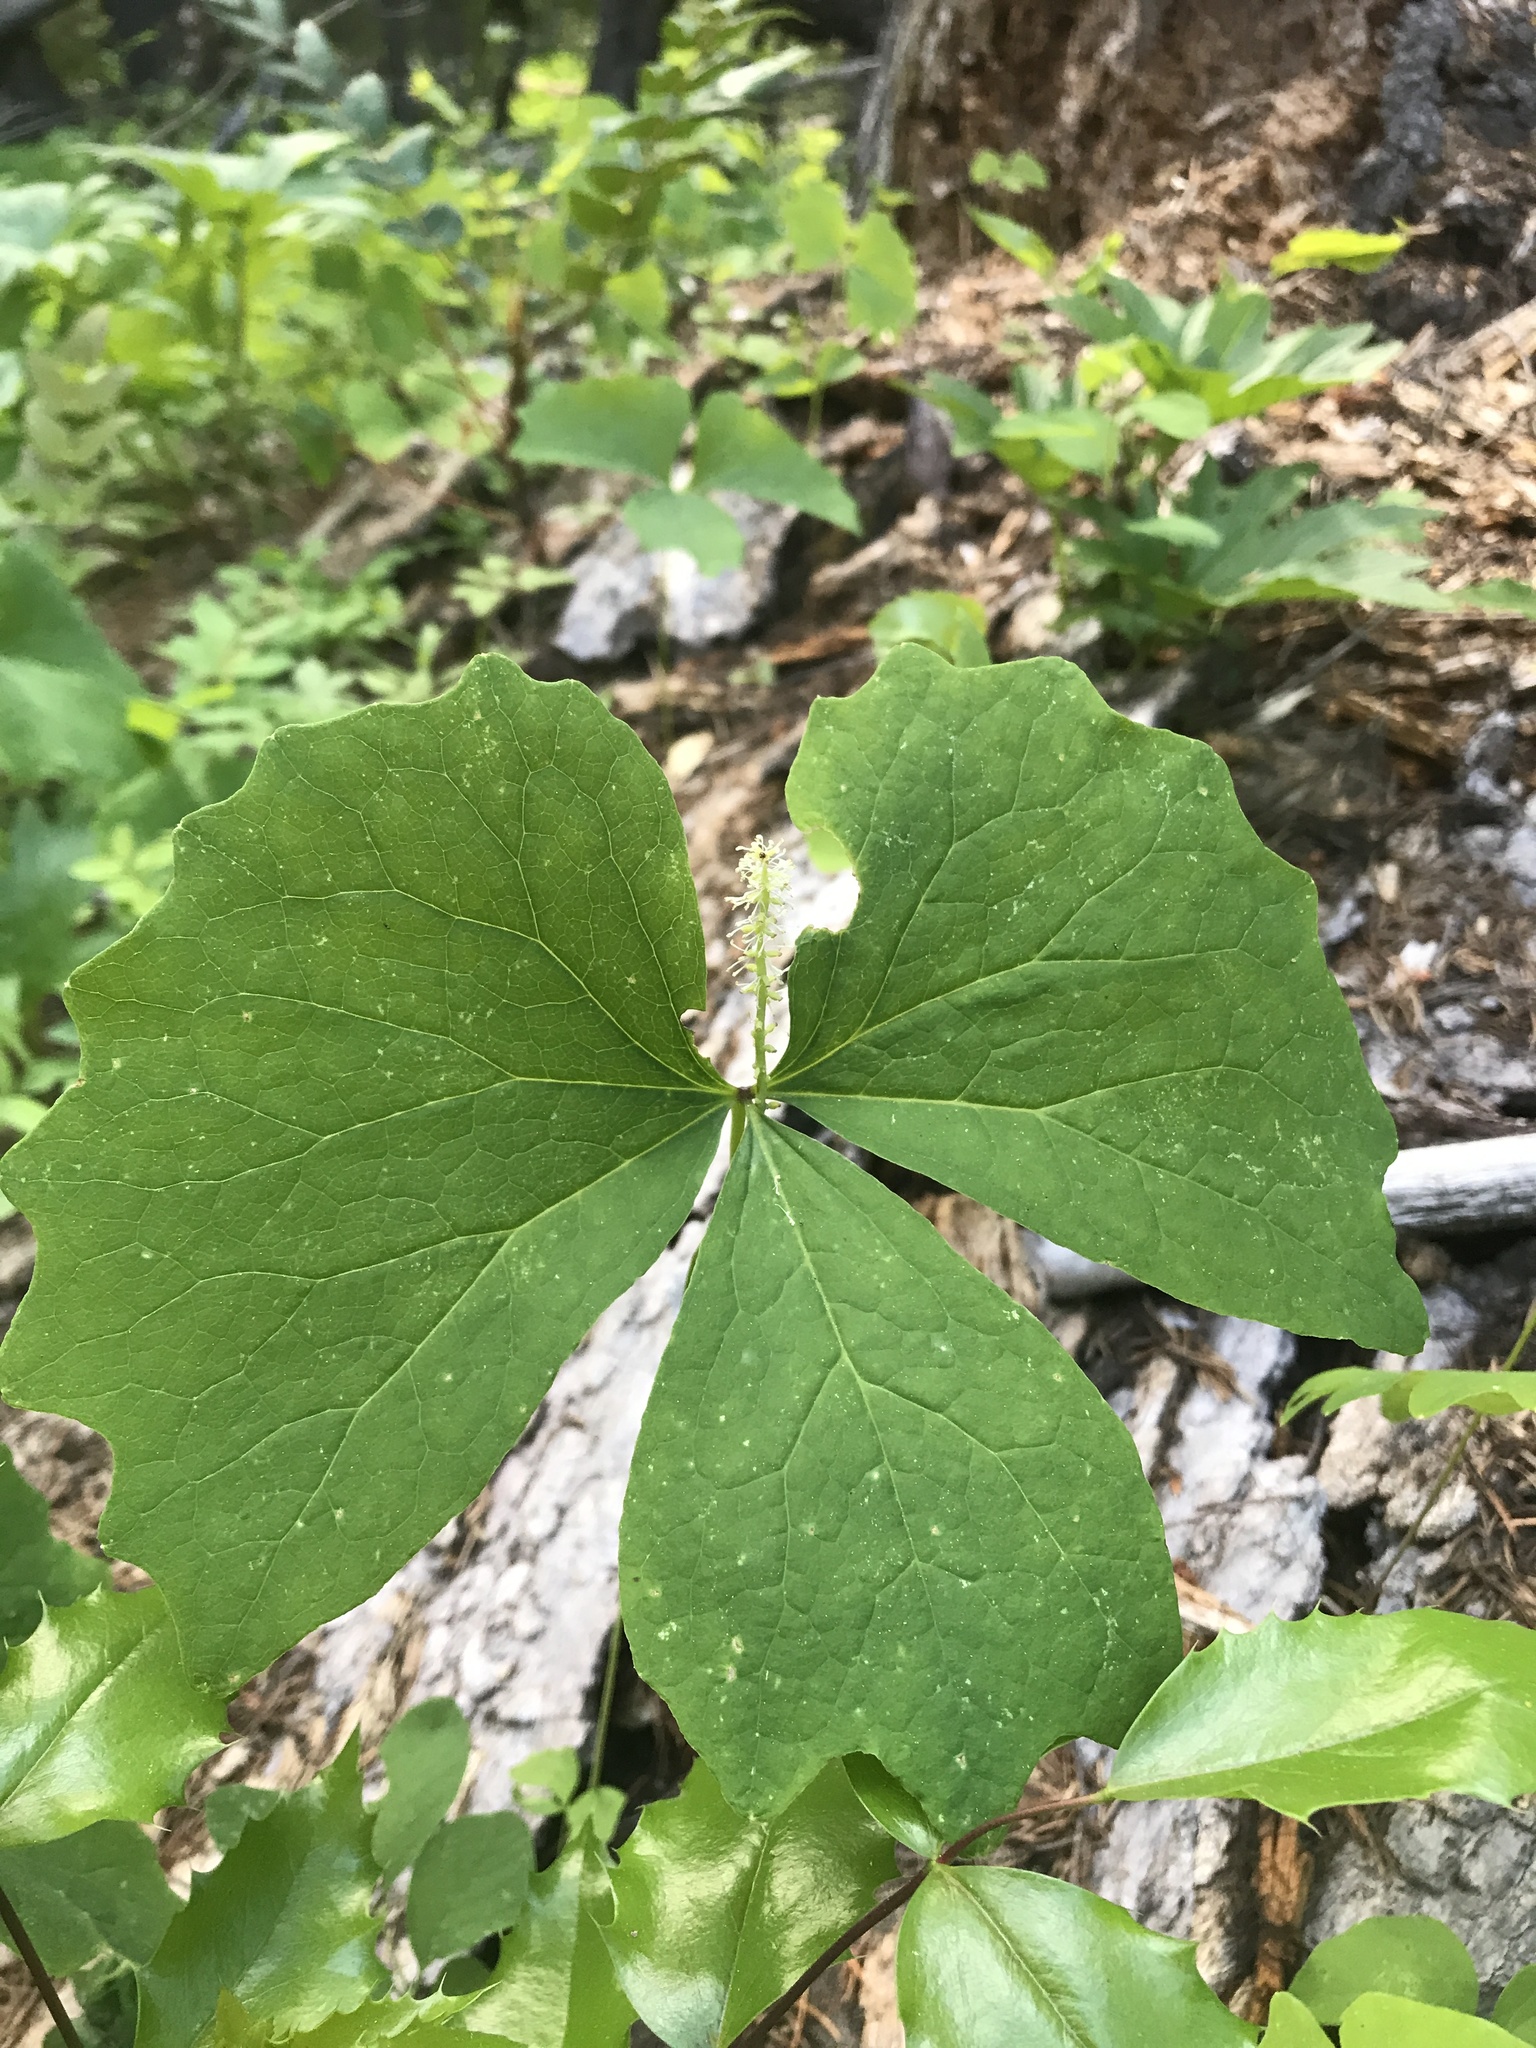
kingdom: Plantae
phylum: Tracheophyta
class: Magnoliopsida
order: Ranunculales
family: Berberidaceae
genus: Achlys
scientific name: Achlys triphylla
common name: Vanilla-leaf
